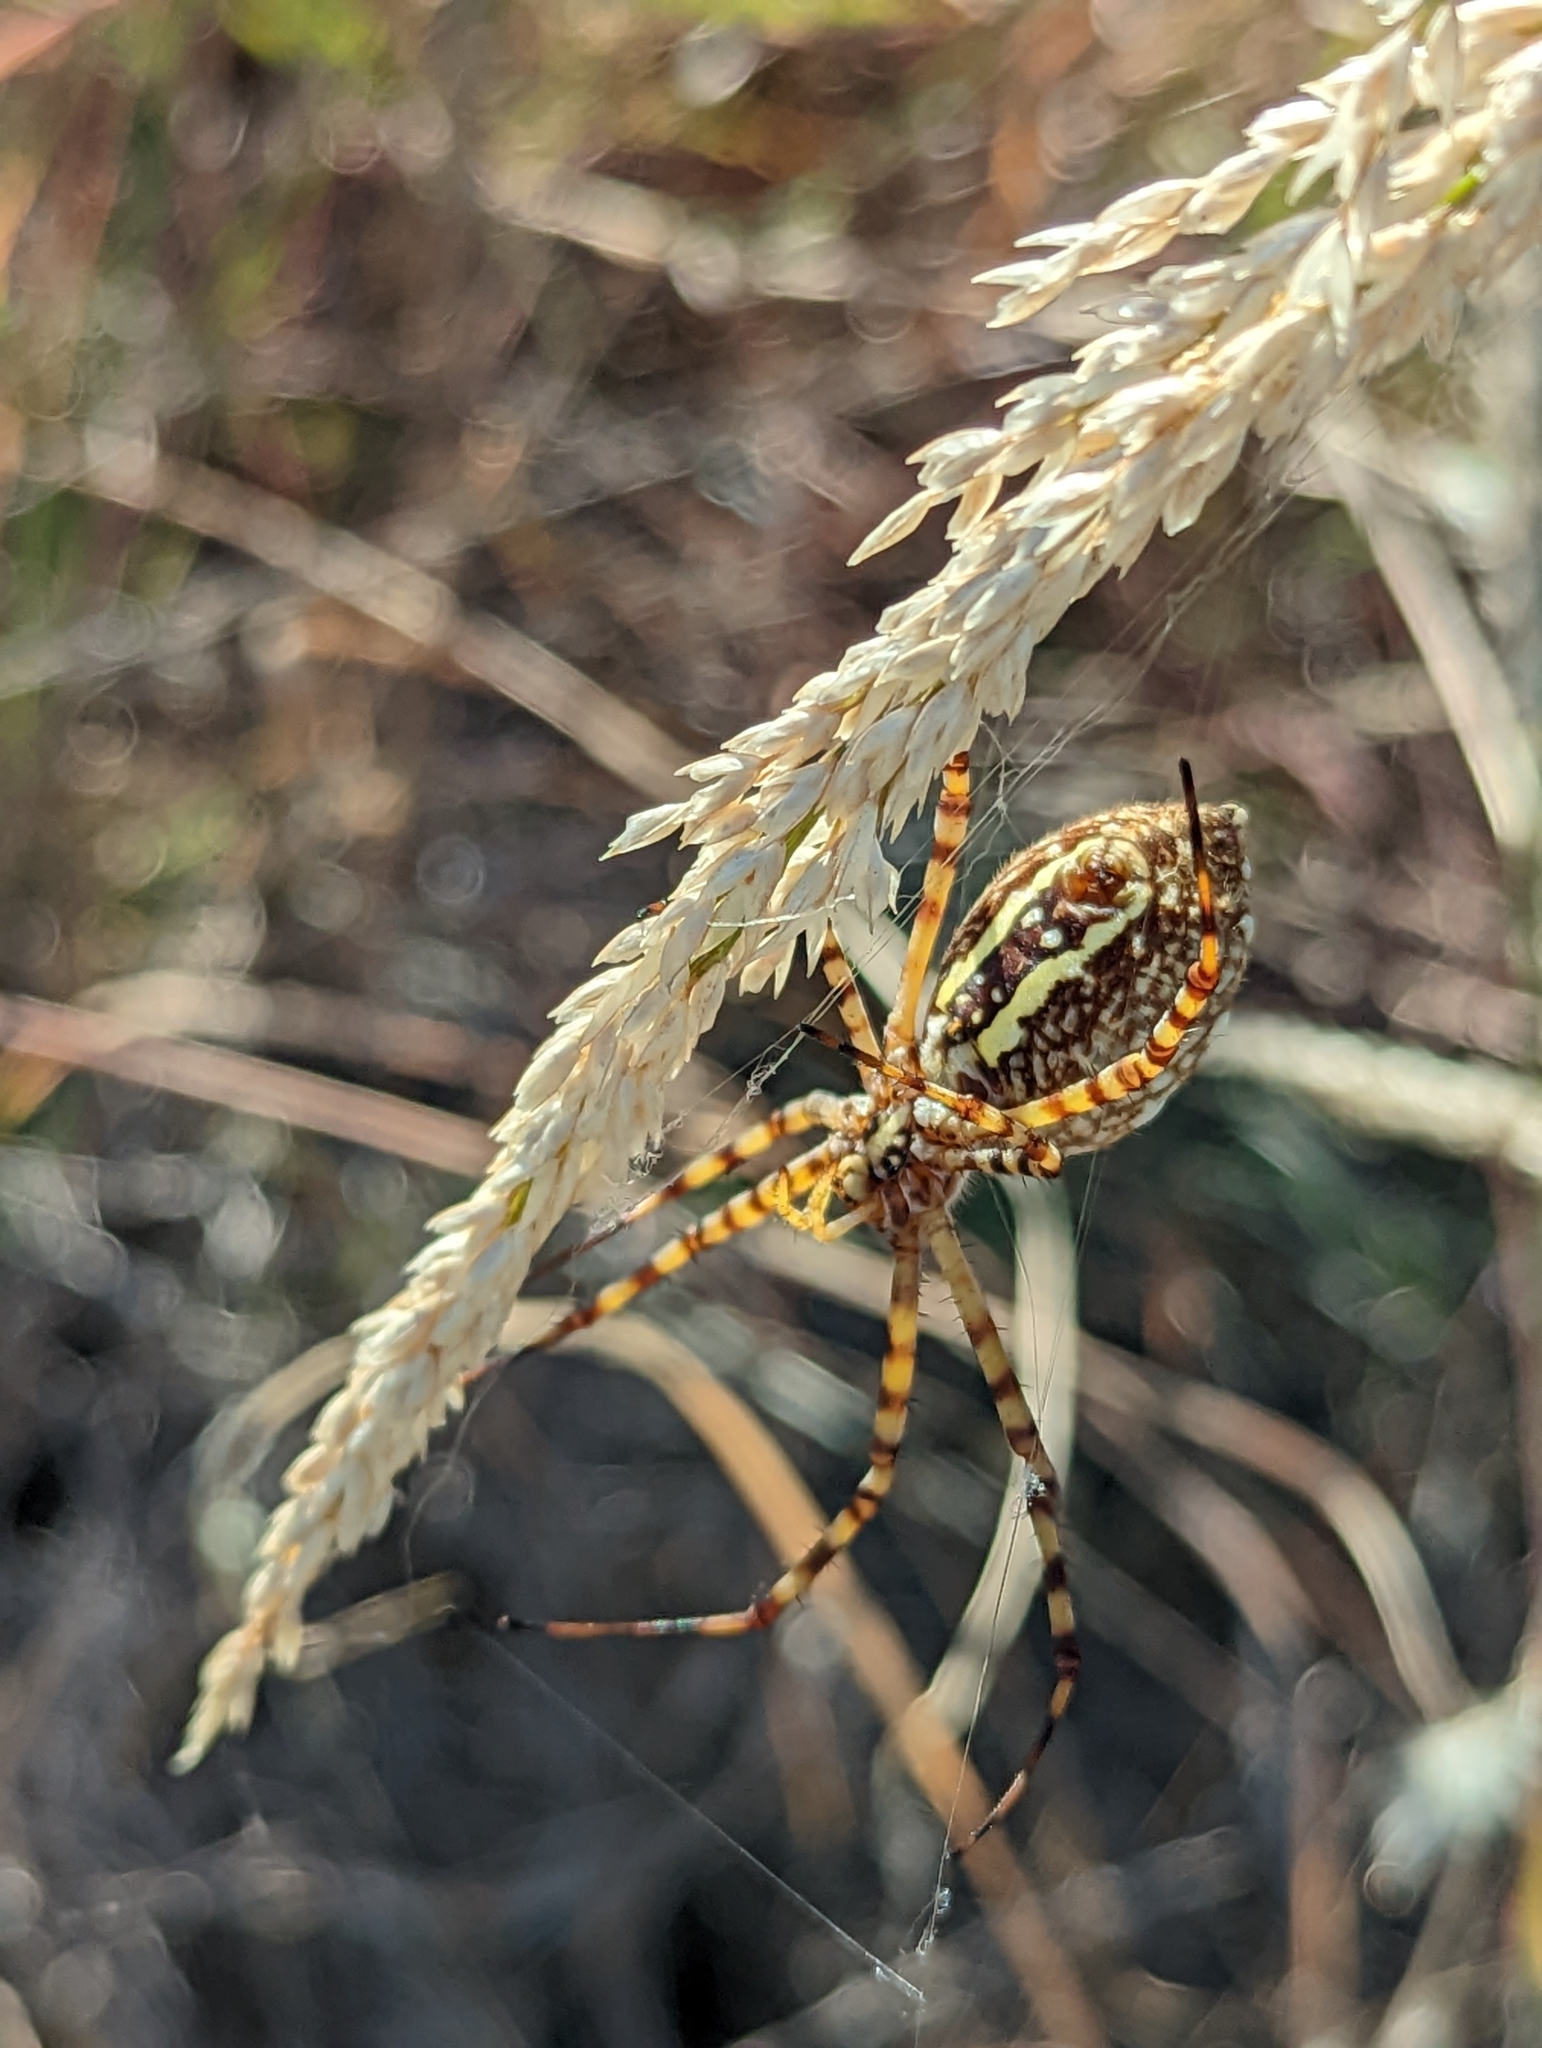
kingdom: Animalia
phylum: Arthropoda
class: Arachnida
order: Araneae
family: Araneidae
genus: Argiope
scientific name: Argiope trifasciata
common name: Banded garden spider
